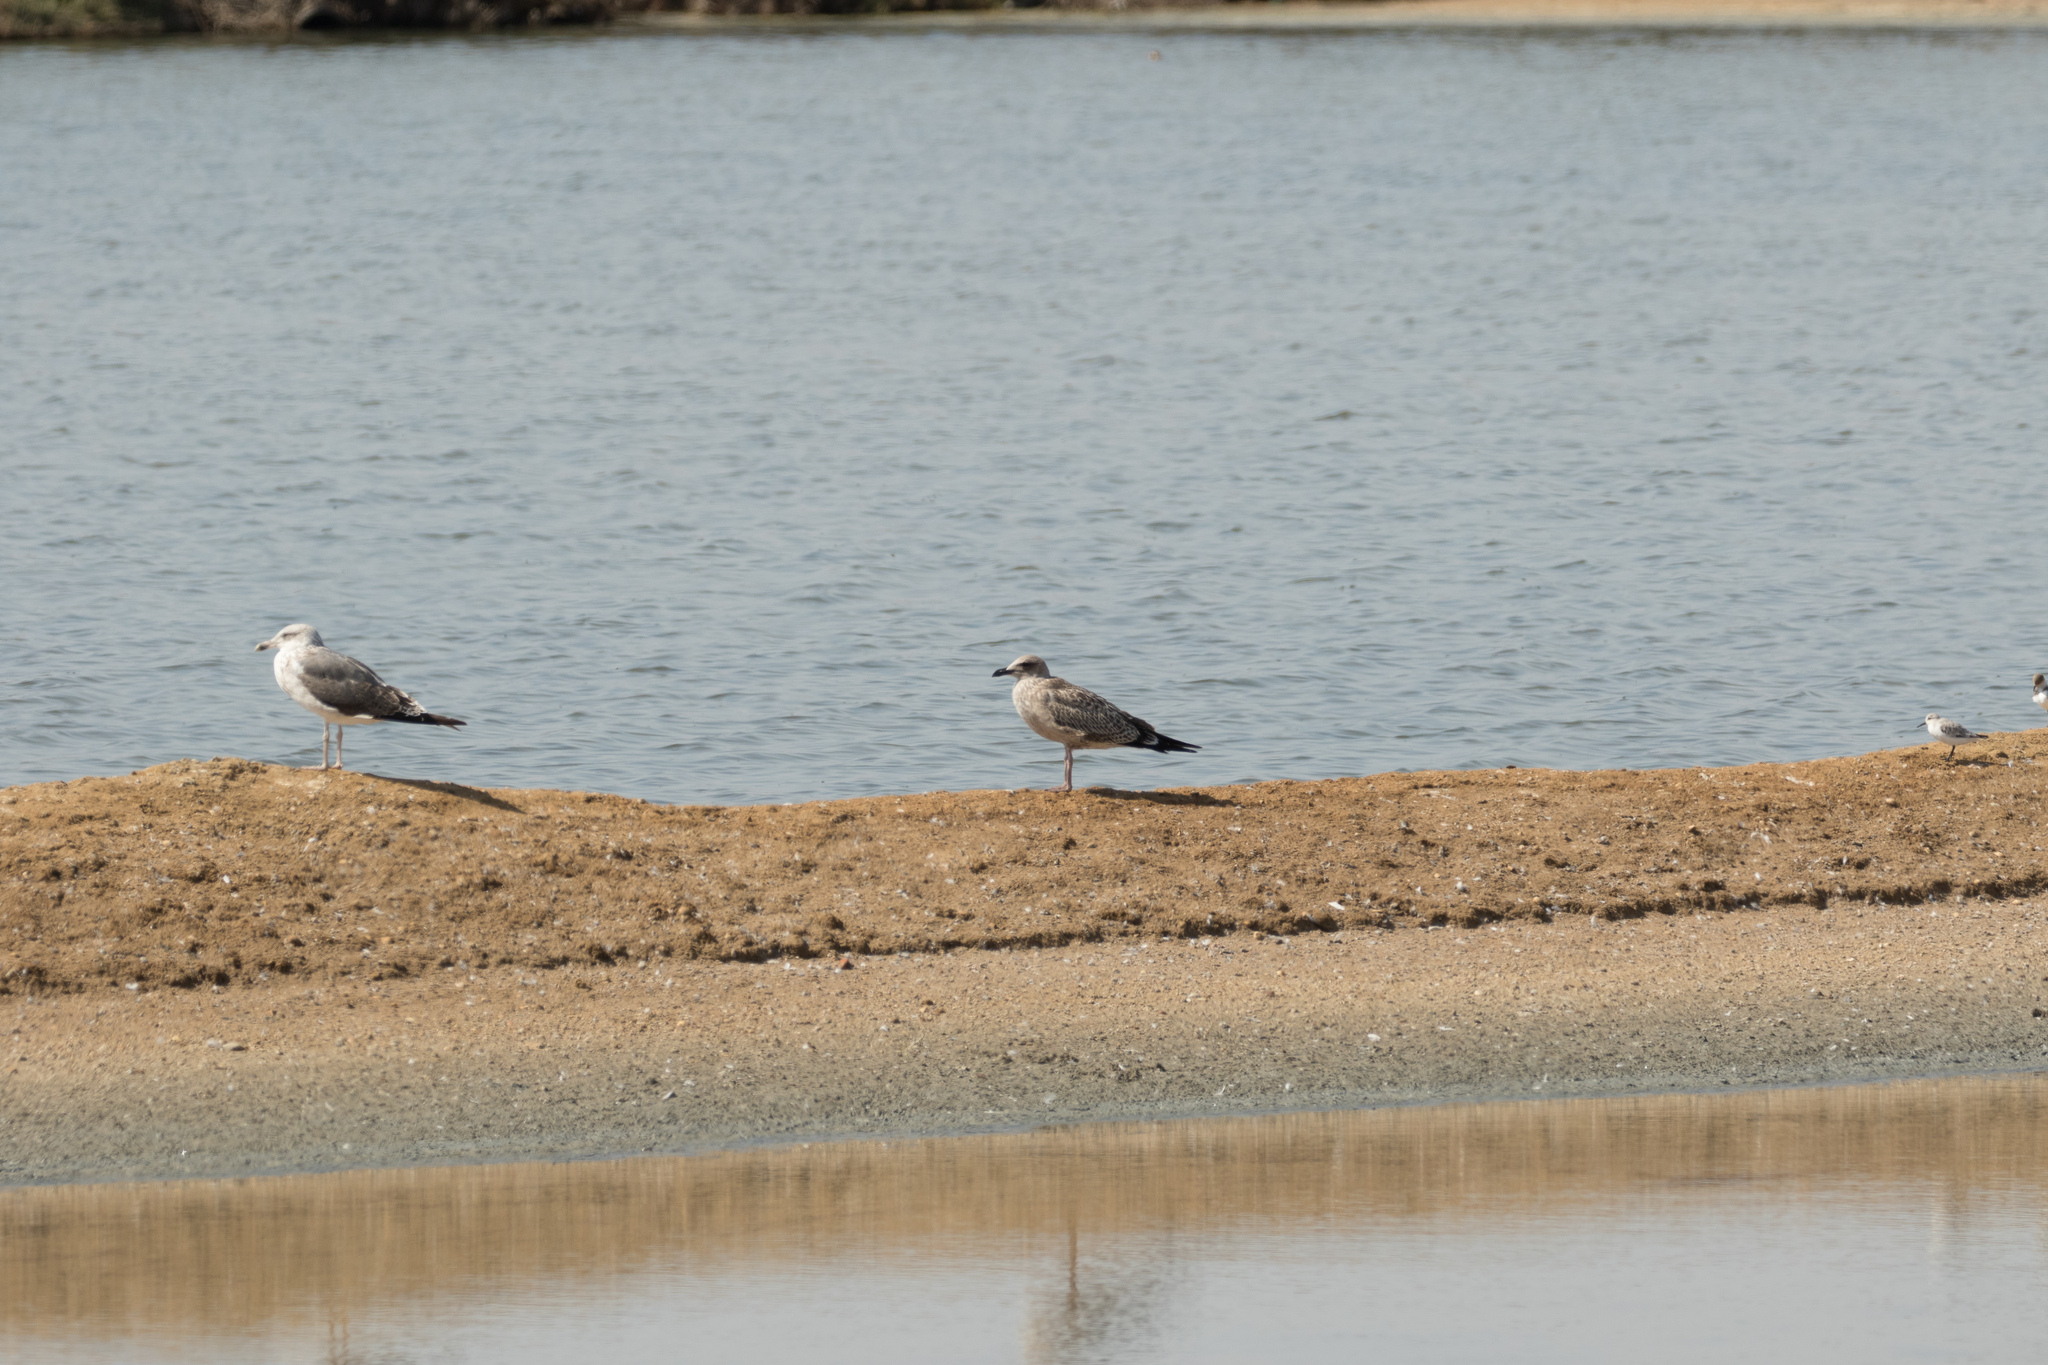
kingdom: Animalia
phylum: Chordata
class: Aves
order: Charadriiformes
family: Laridae
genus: Larus
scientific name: Larus fuscus
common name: Lesser black-backed gull
